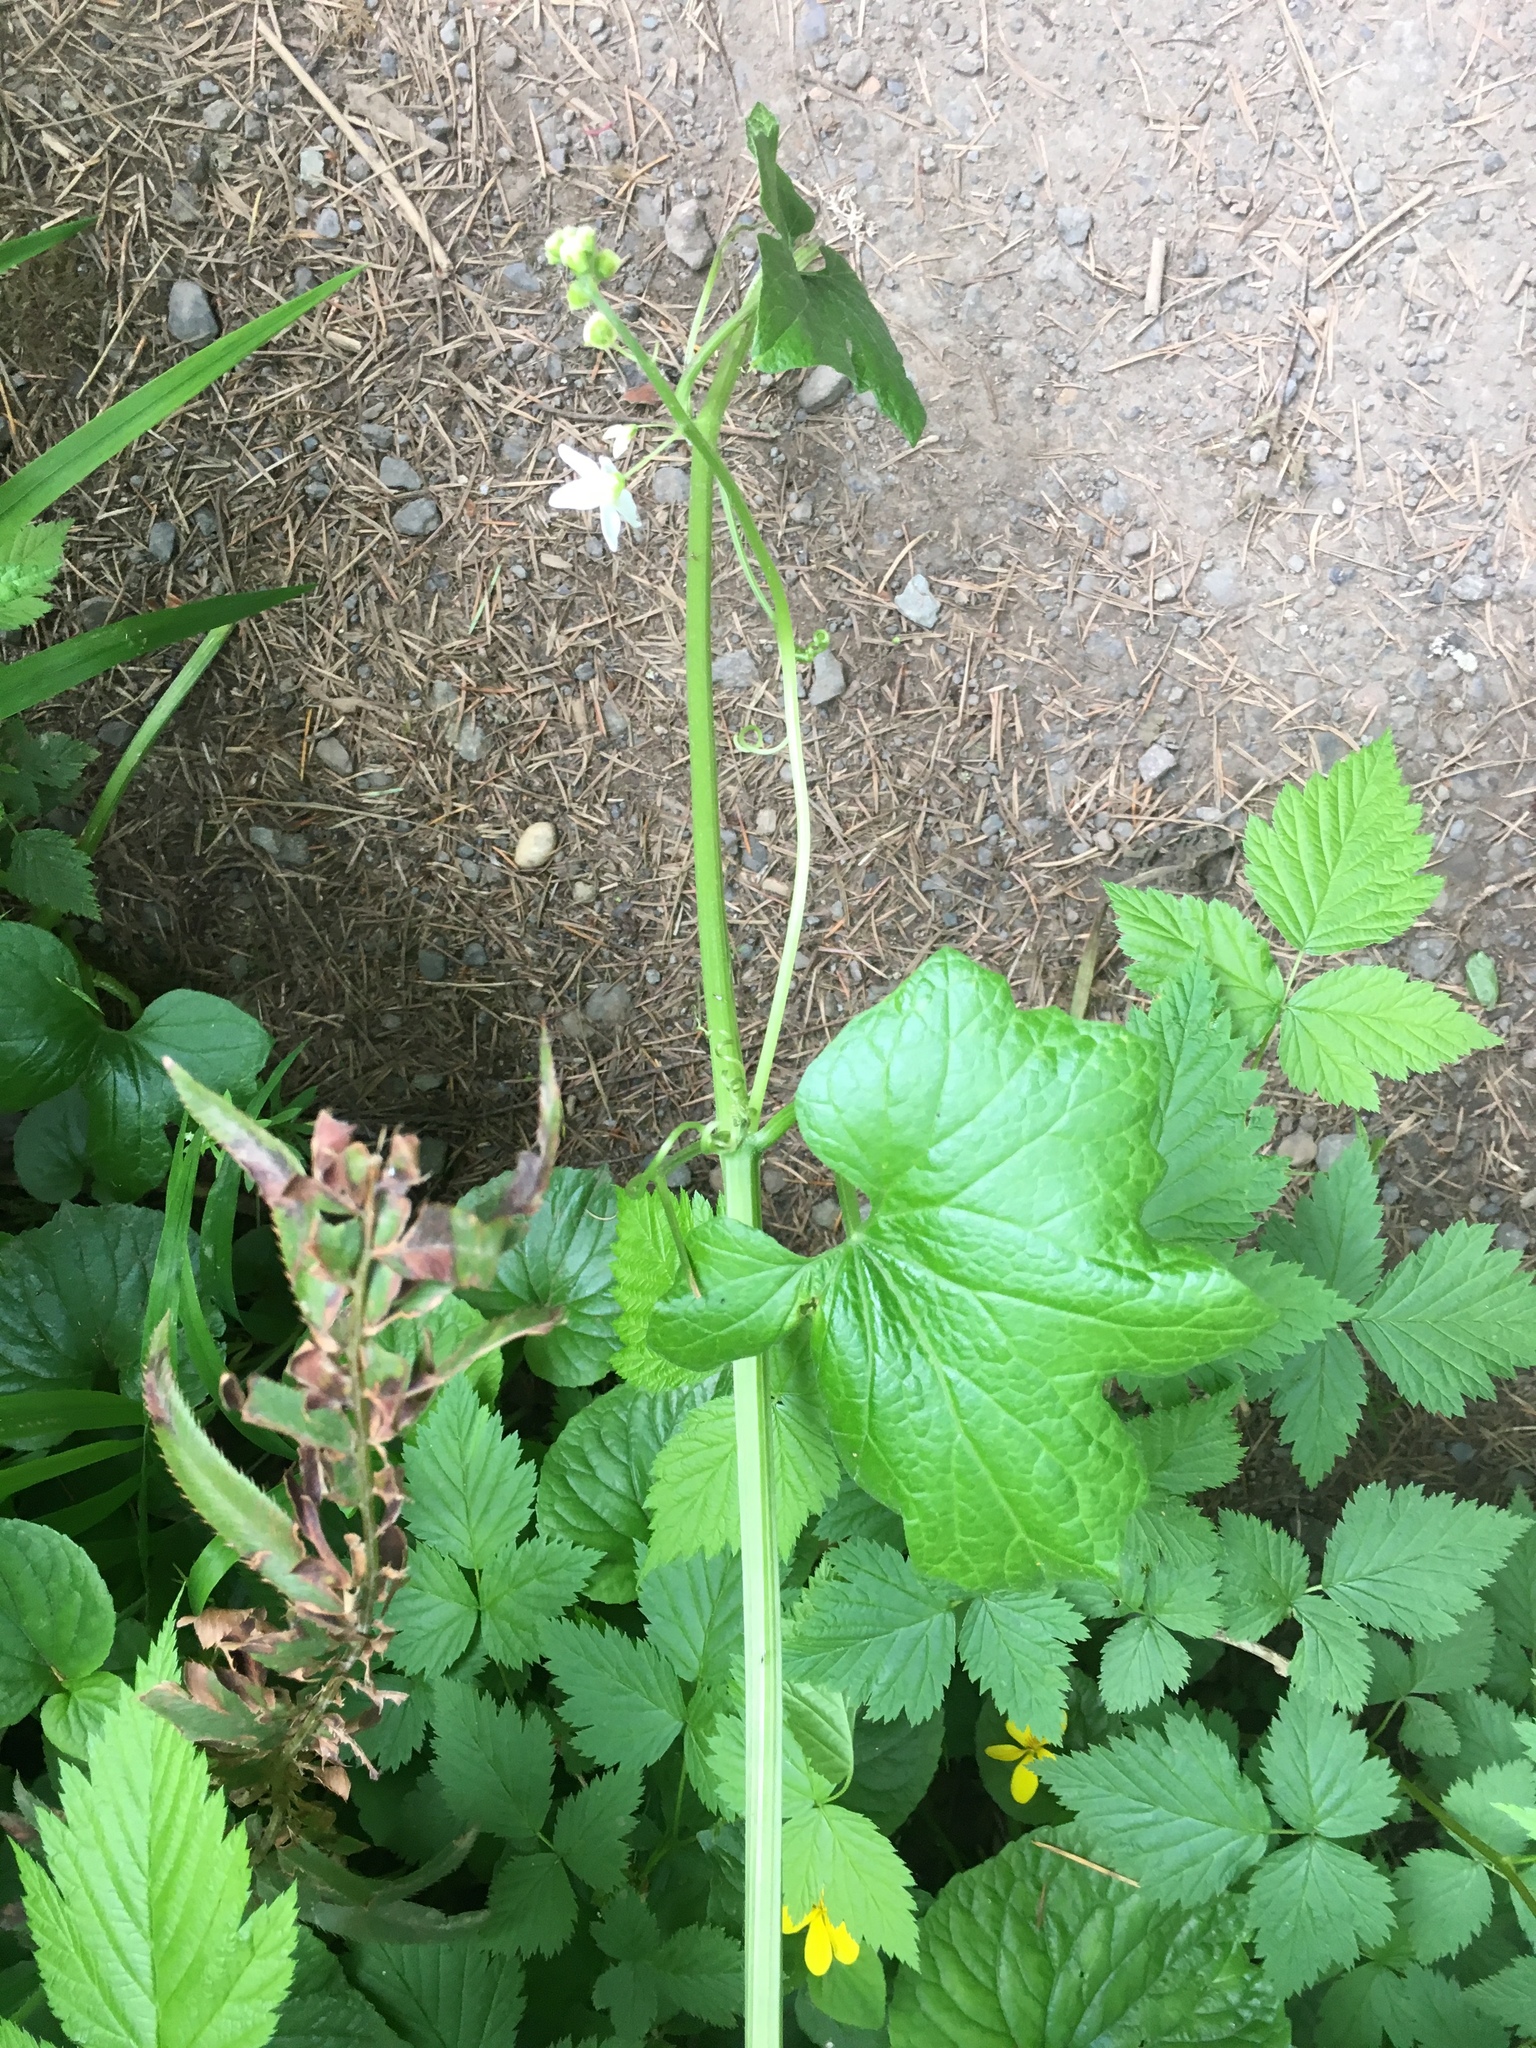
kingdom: Plantae
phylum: Tracheophyta
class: Magnoliopsida
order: Cucurbitales
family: Cucurbitaceae
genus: Marah
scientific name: Marah oregana
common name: Coastal manroot
